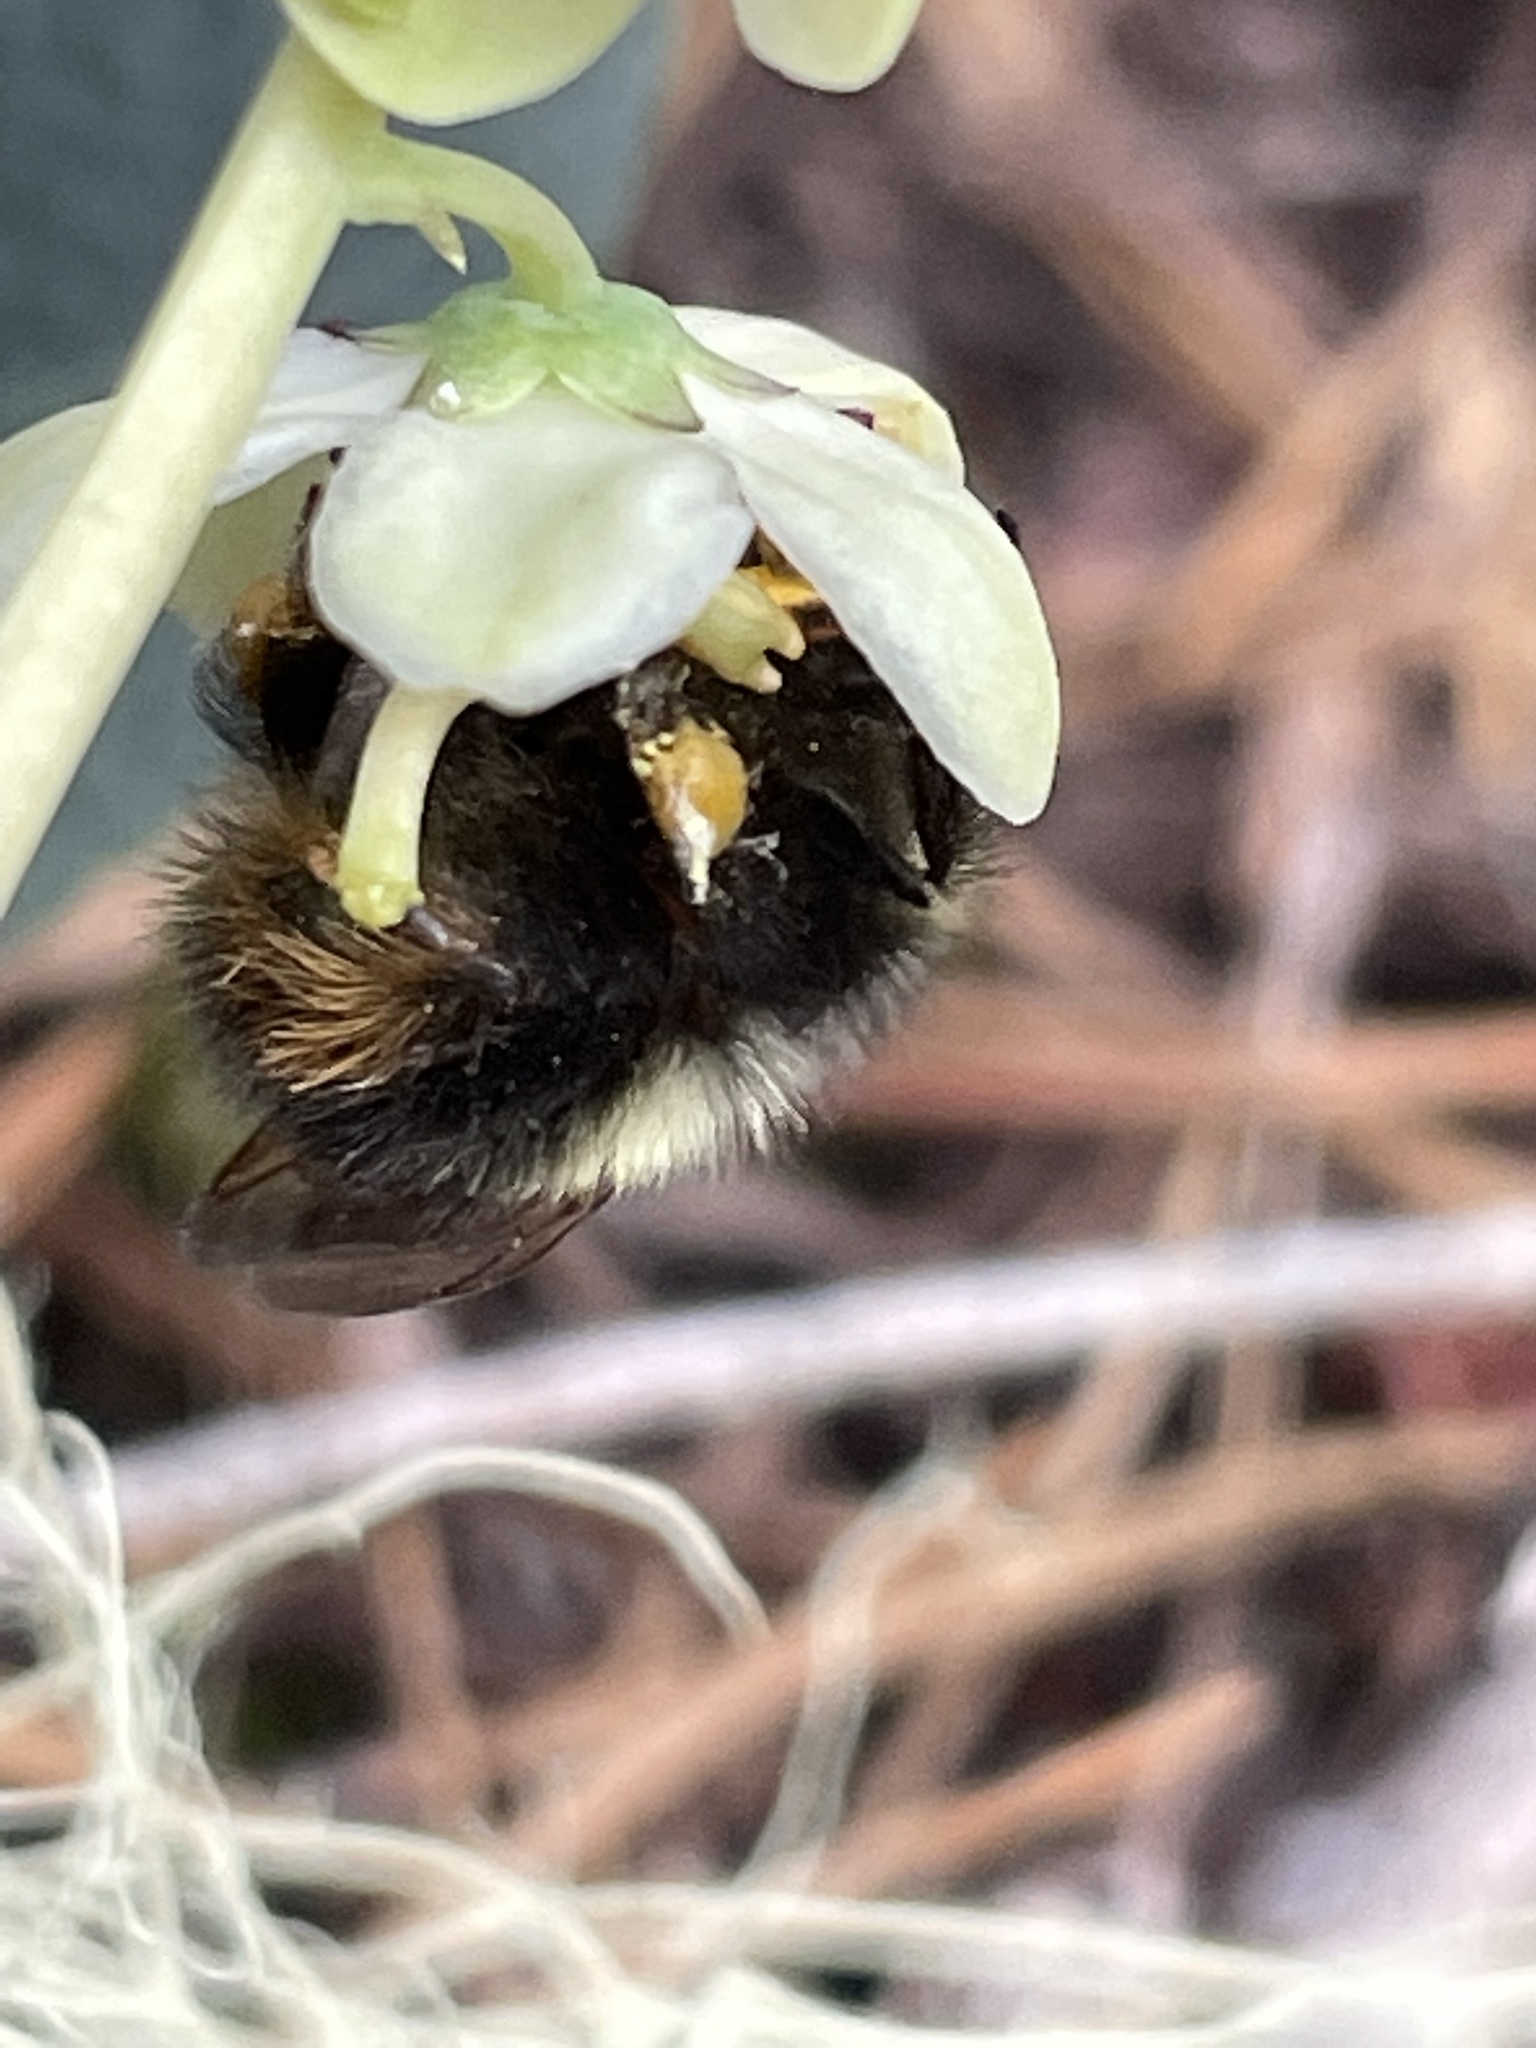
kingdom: Animalia
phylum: Arthropoda
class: Insecta
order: Hymenoptera
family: Apidae
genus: Bombus
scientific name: Bombus sitkensis
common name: Sitka bumble bee
